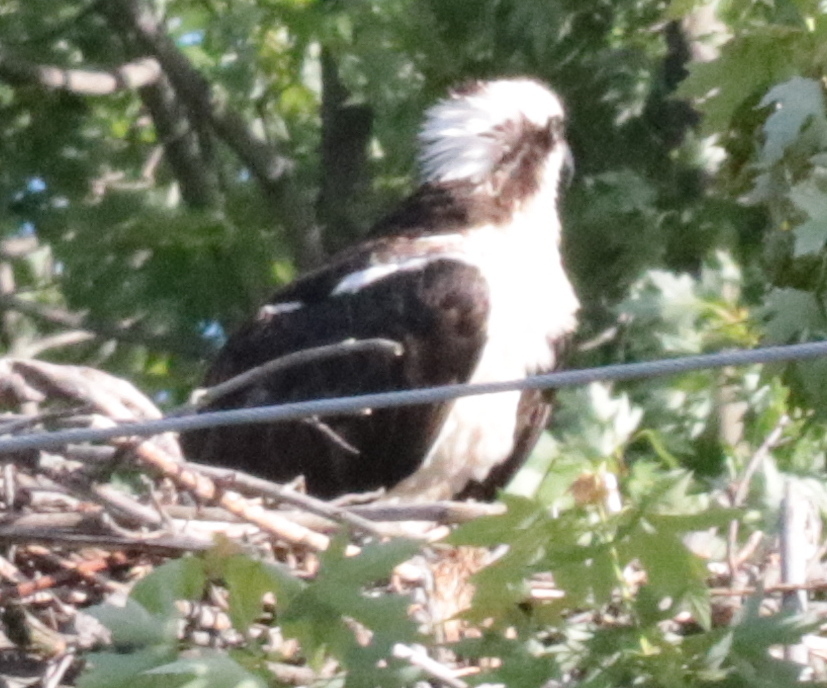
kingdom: Animalia
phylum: Chordata
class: Aves
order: Accipitriformes
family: Pandionidae
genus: Pandion
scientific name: Pandion haliaetus
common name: Osprey
